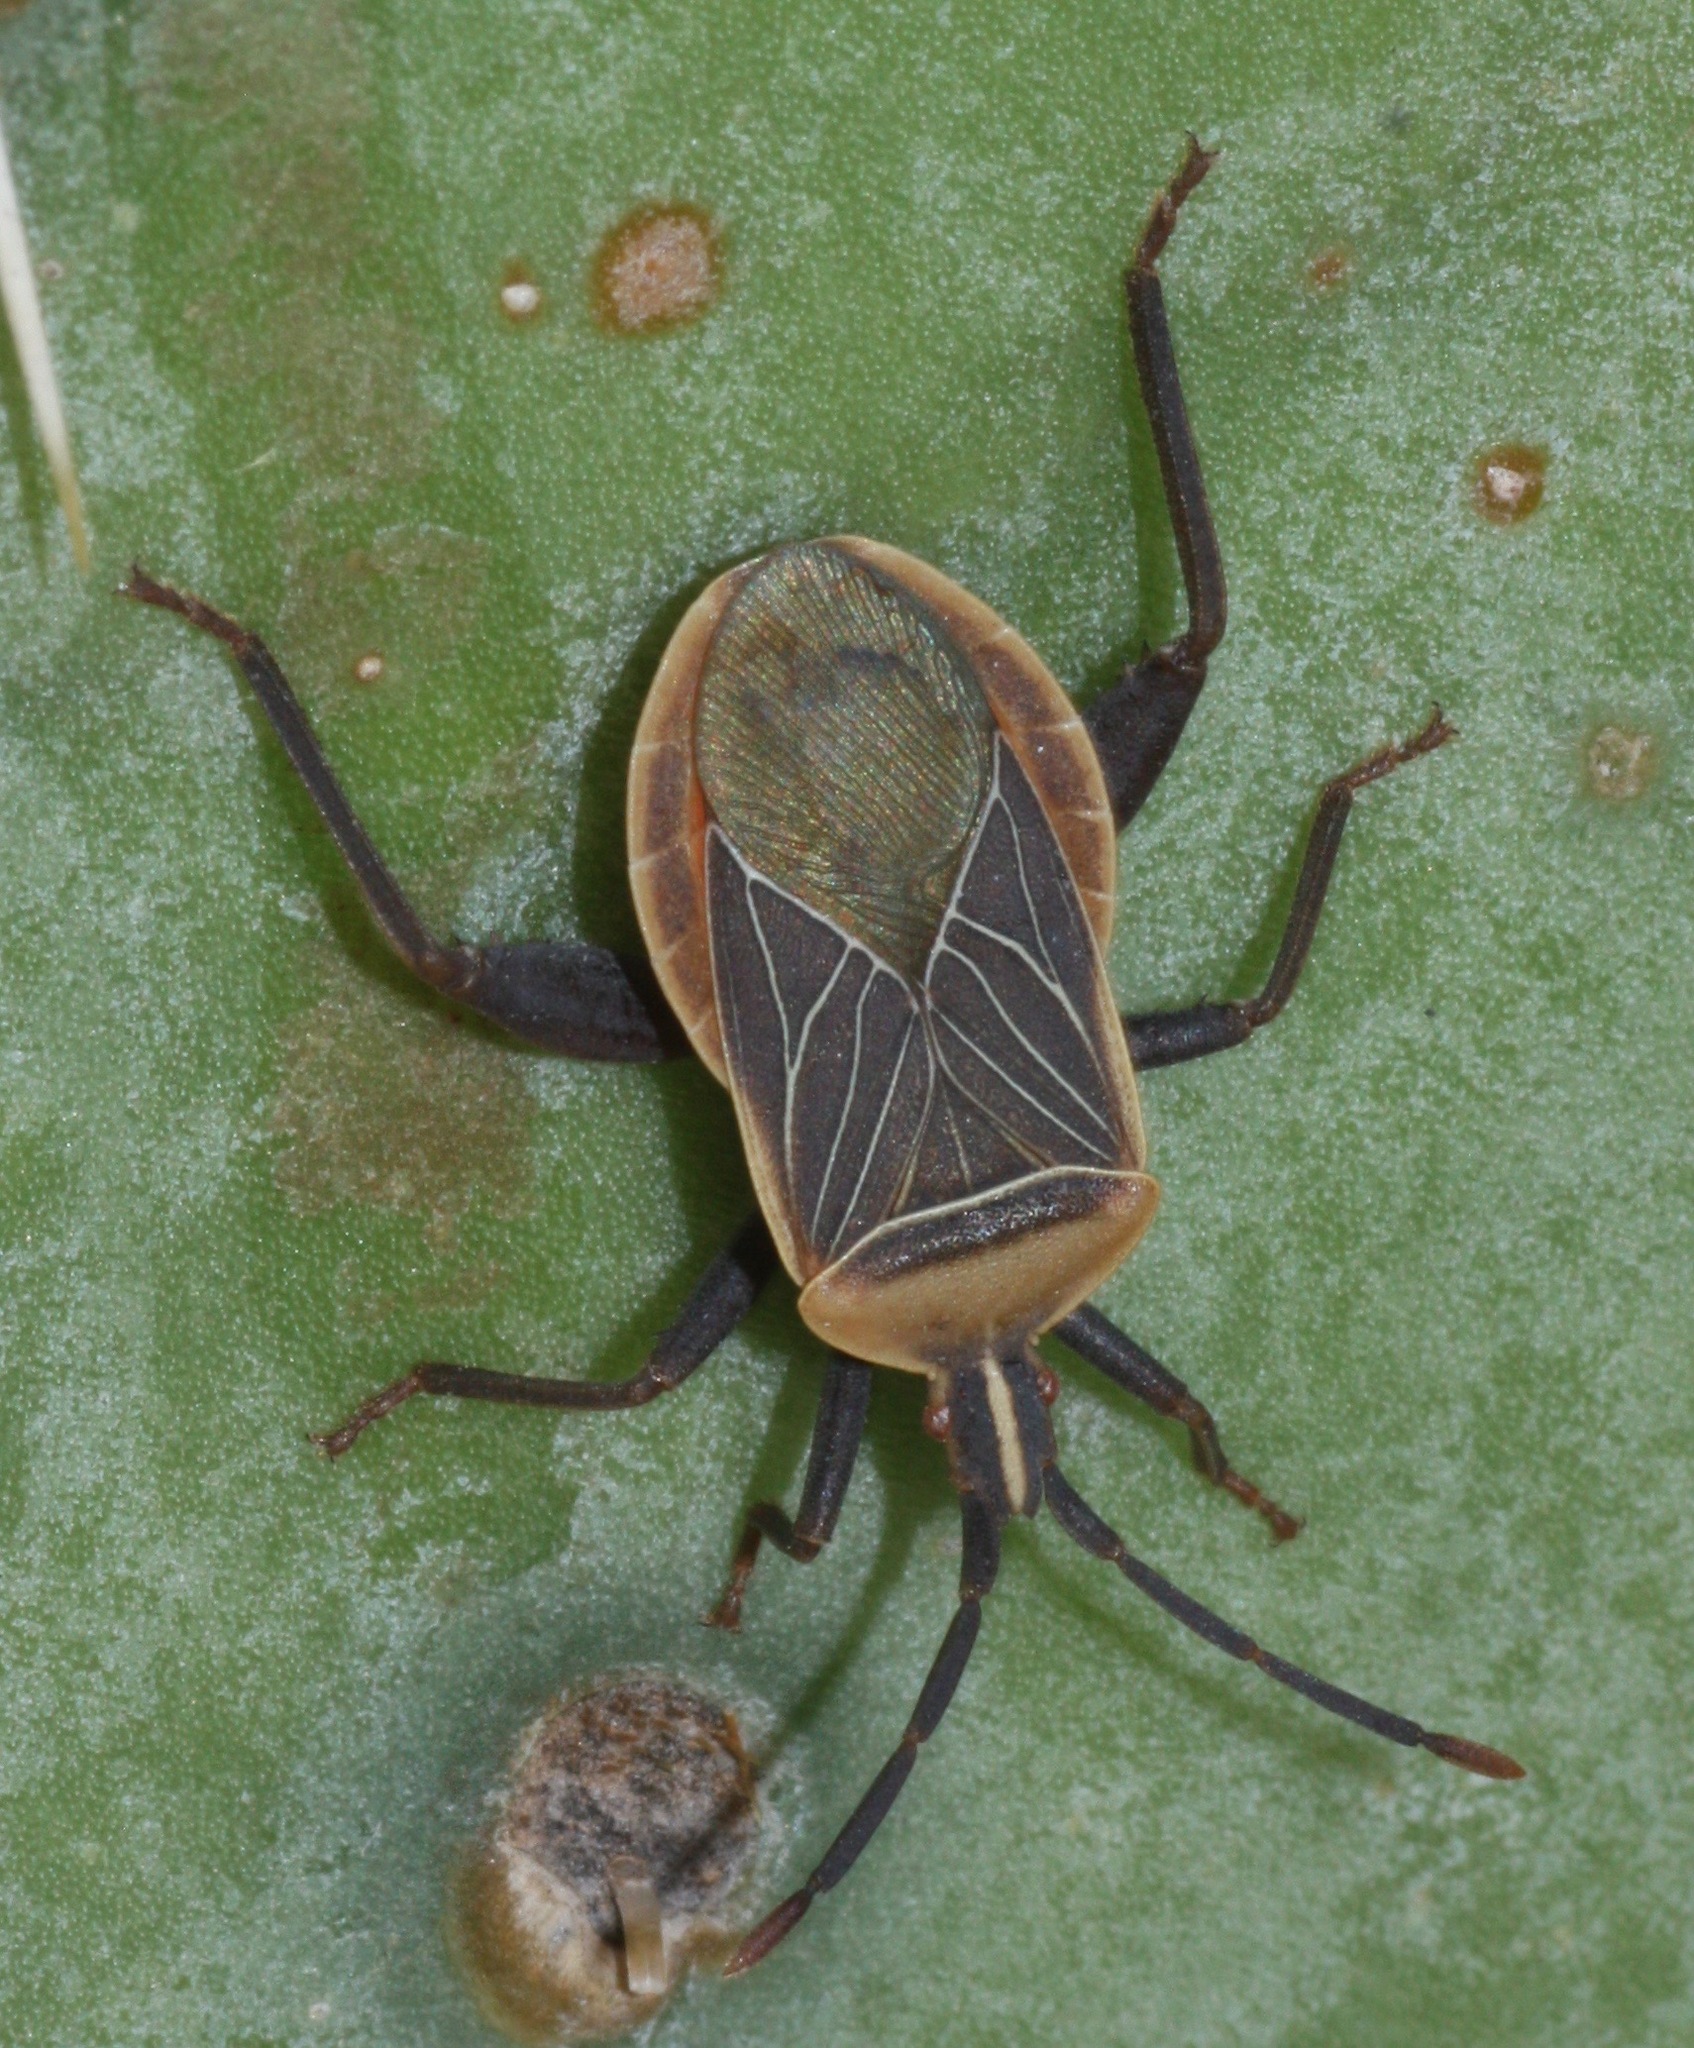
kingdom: Animalia
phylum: Arthropoda
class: Insecta
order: Hemiptera
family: Coreidae
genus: Chelinidea
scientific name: Chelinidea vittiger
